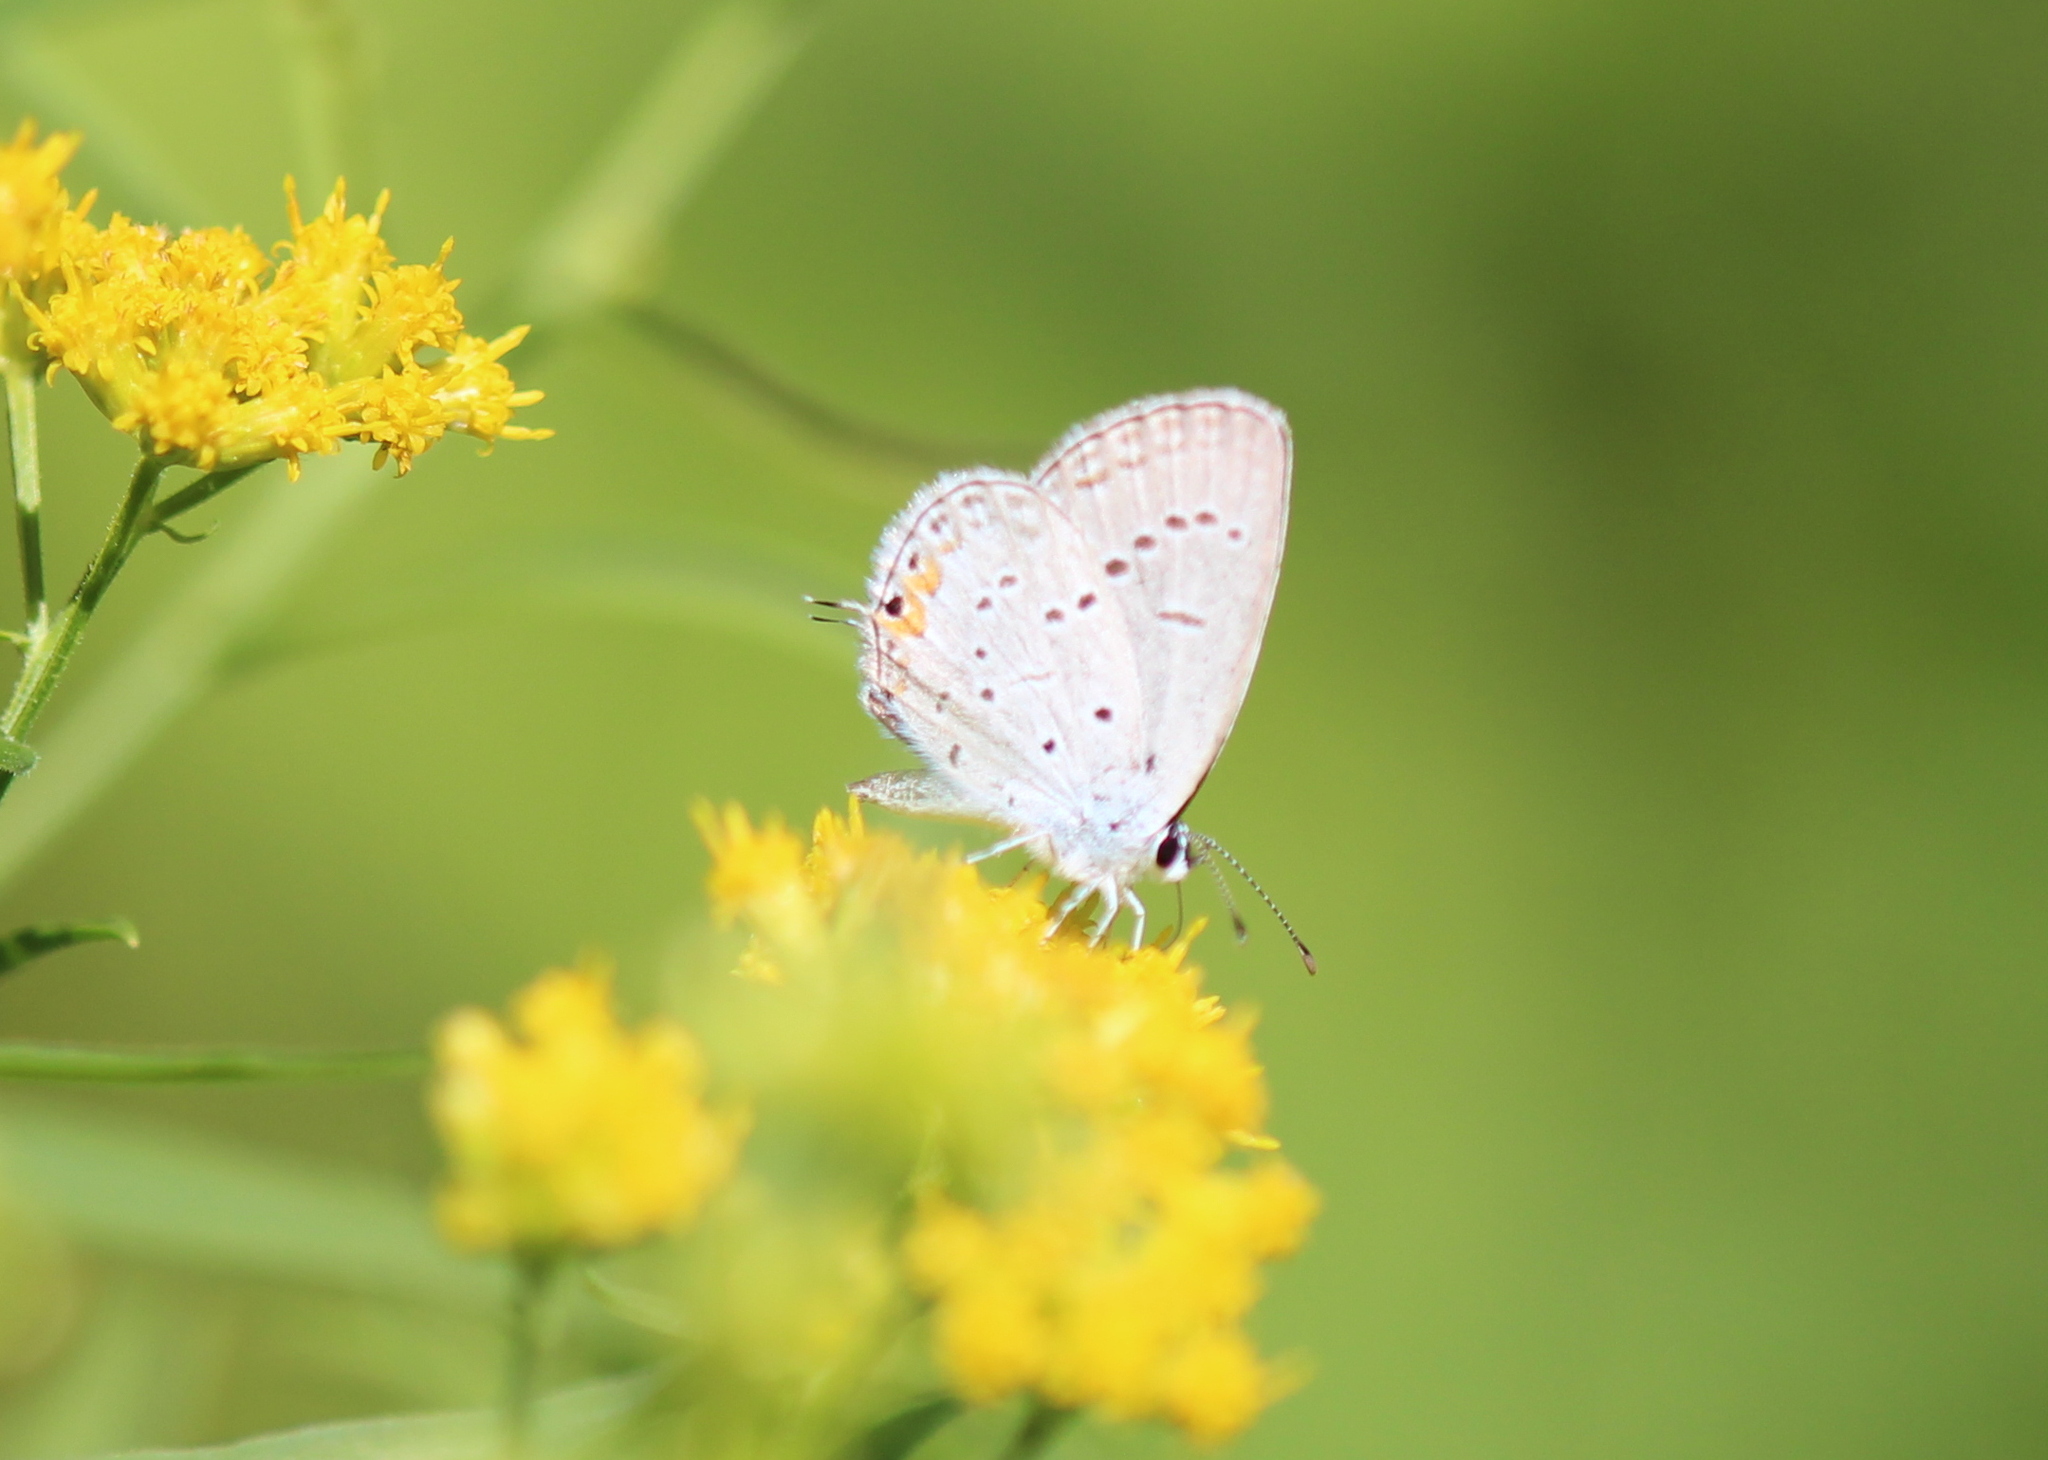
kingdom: Animalia
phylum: Arthropoda
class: Insecta
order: Lepidoptera
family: Lycaenidae
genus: Elkalyce
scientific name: Elkalyce comyntas
